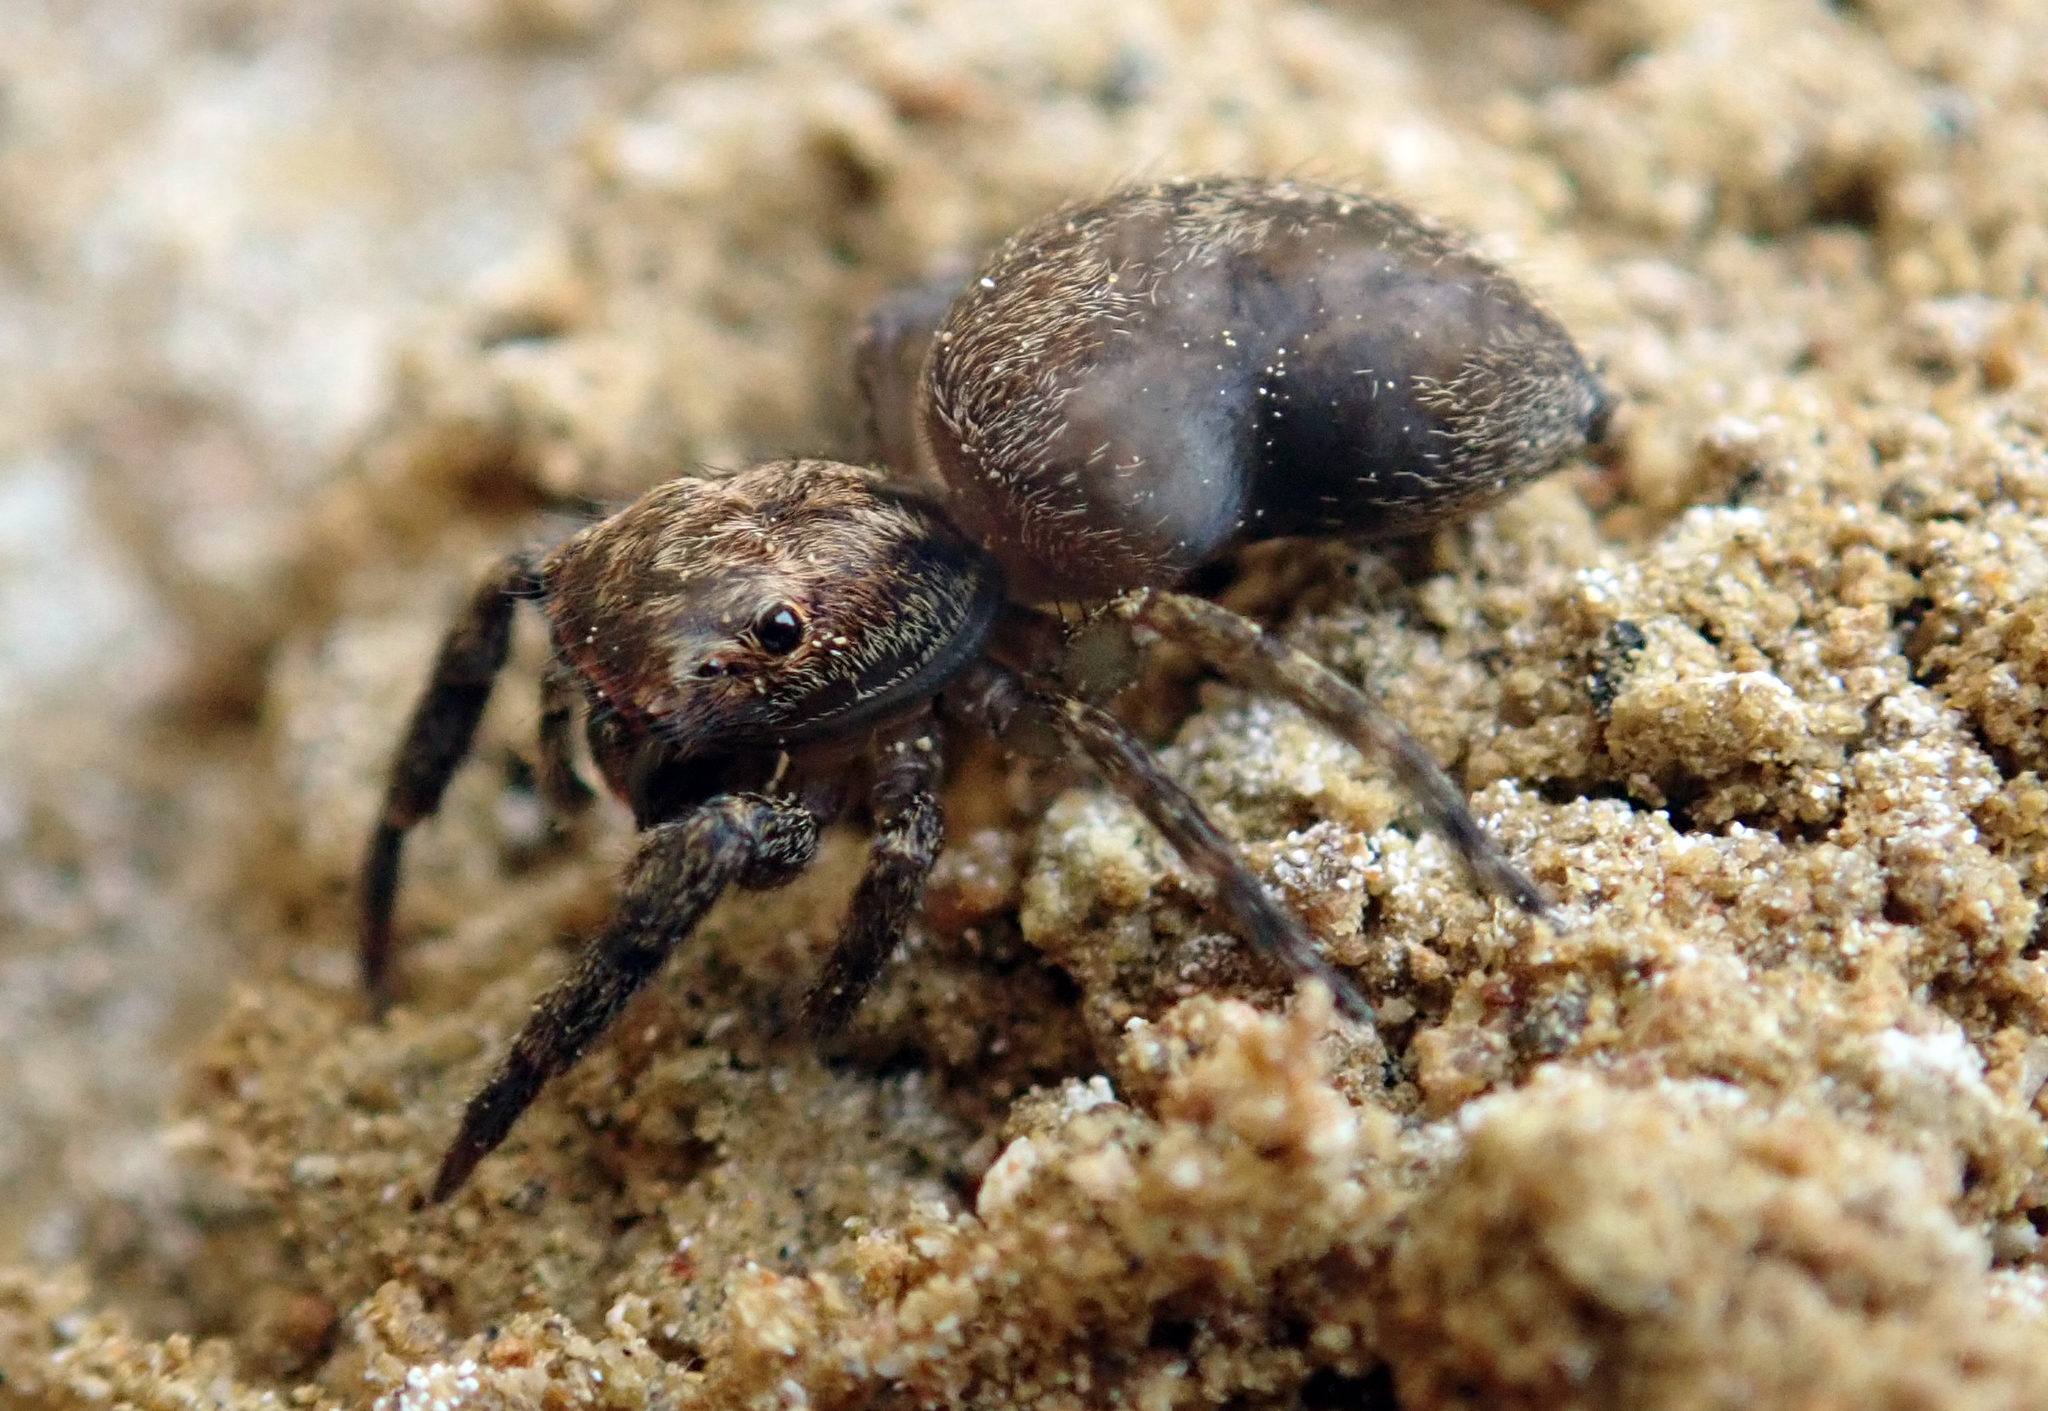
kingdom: Animalia
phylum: Arthropoda
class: Arachnida
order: Araneae
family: Salticidae
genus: Trite
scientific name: Trite auricoma
